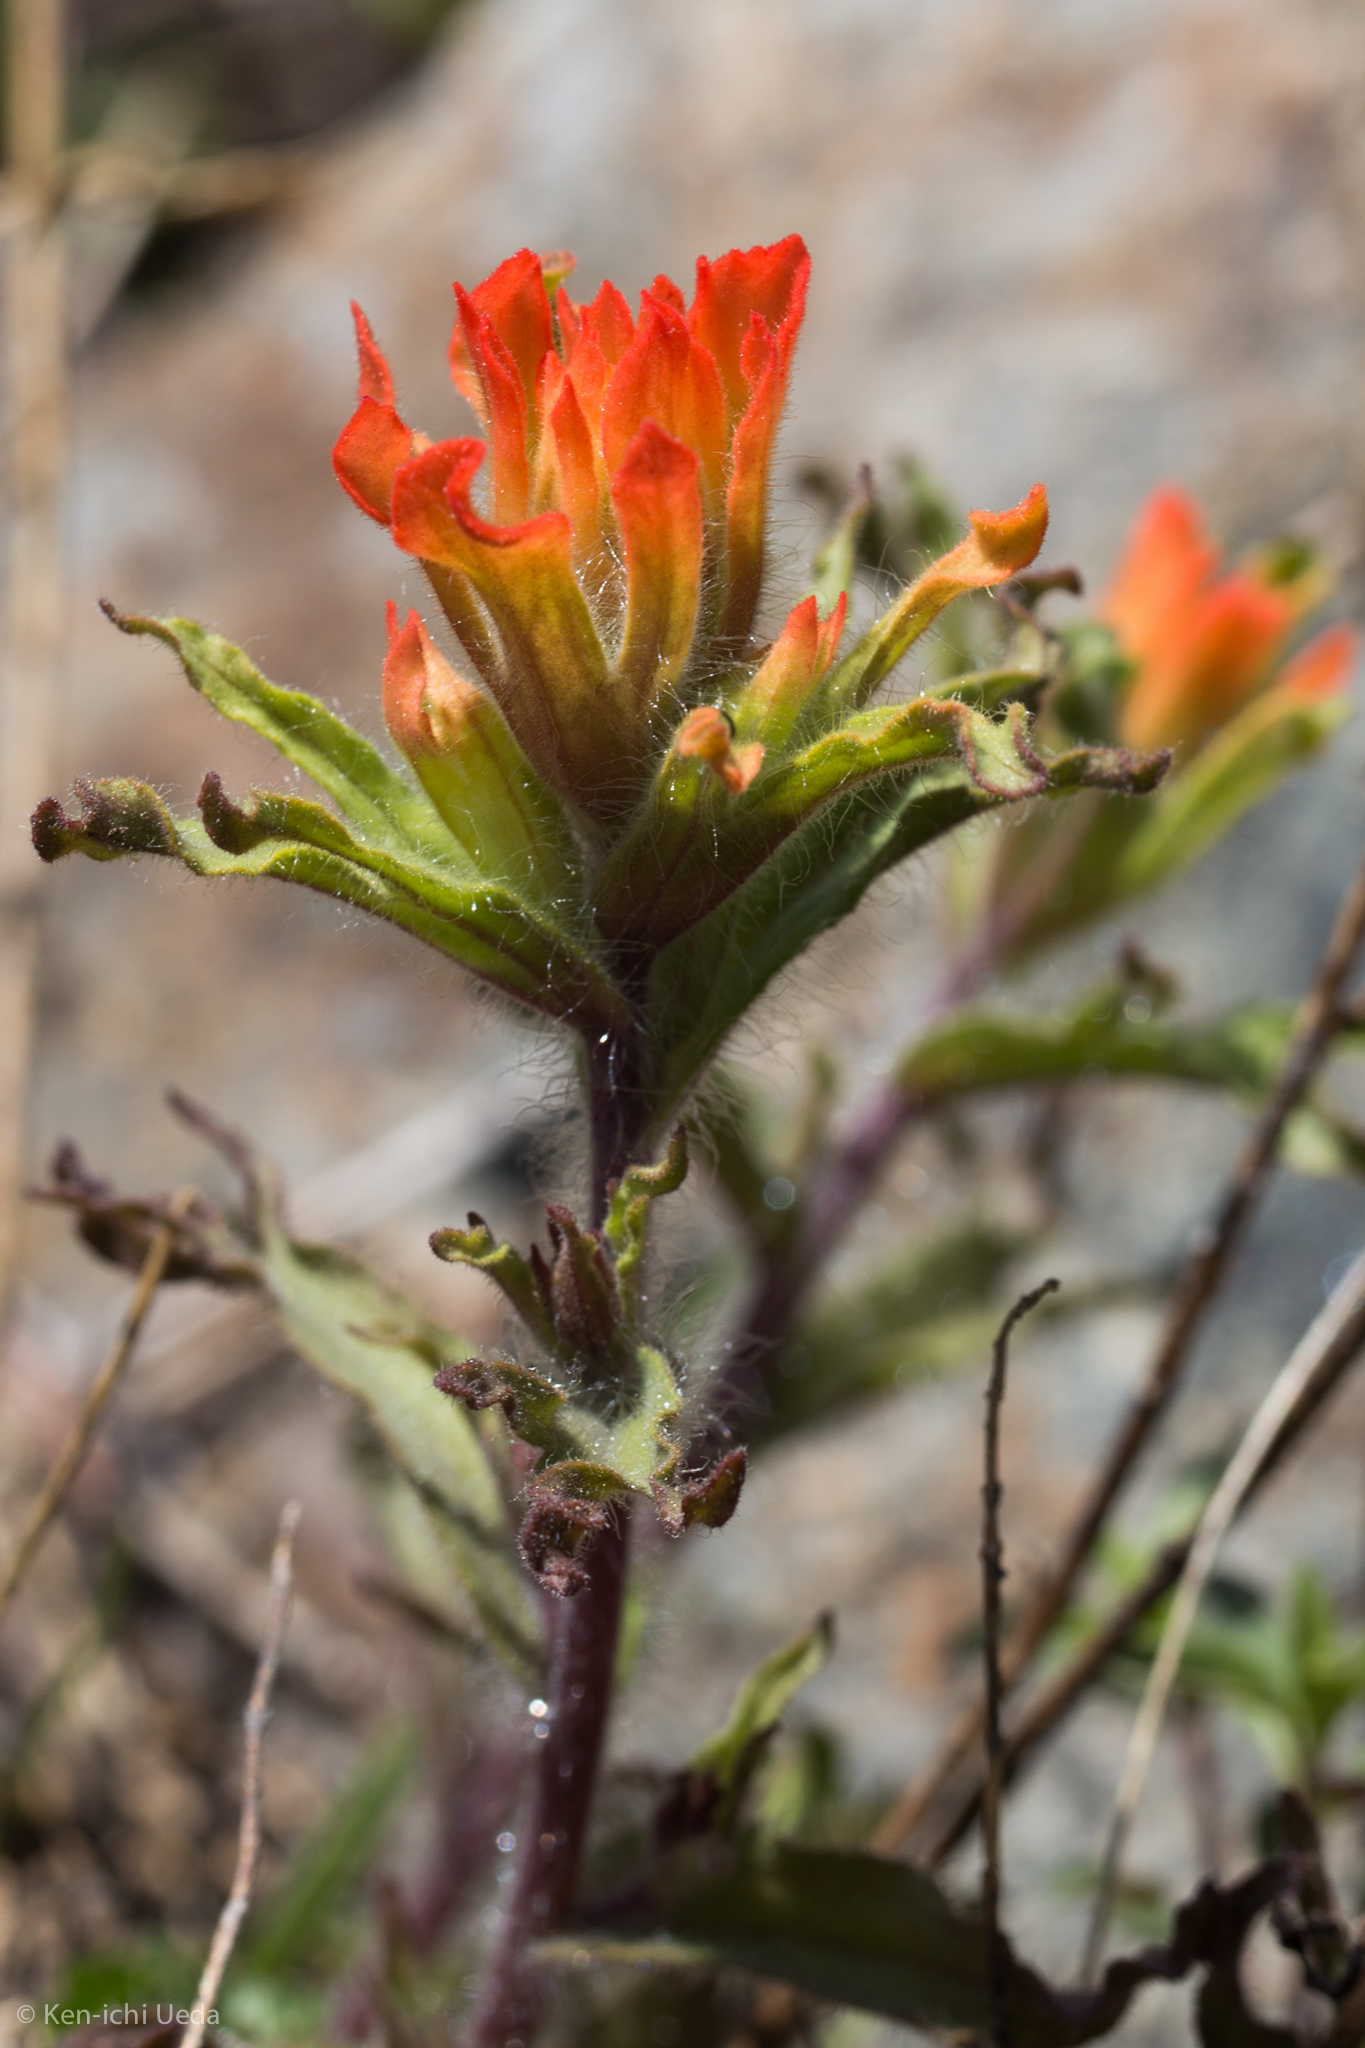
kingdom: Plantae
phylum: Tracheophyta
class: Magnoliopsida
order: Lamiales
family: Orobanchaceae
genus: Castilleja
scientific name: Castilleja applegatei
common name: Wavy-leaf paintbrush
